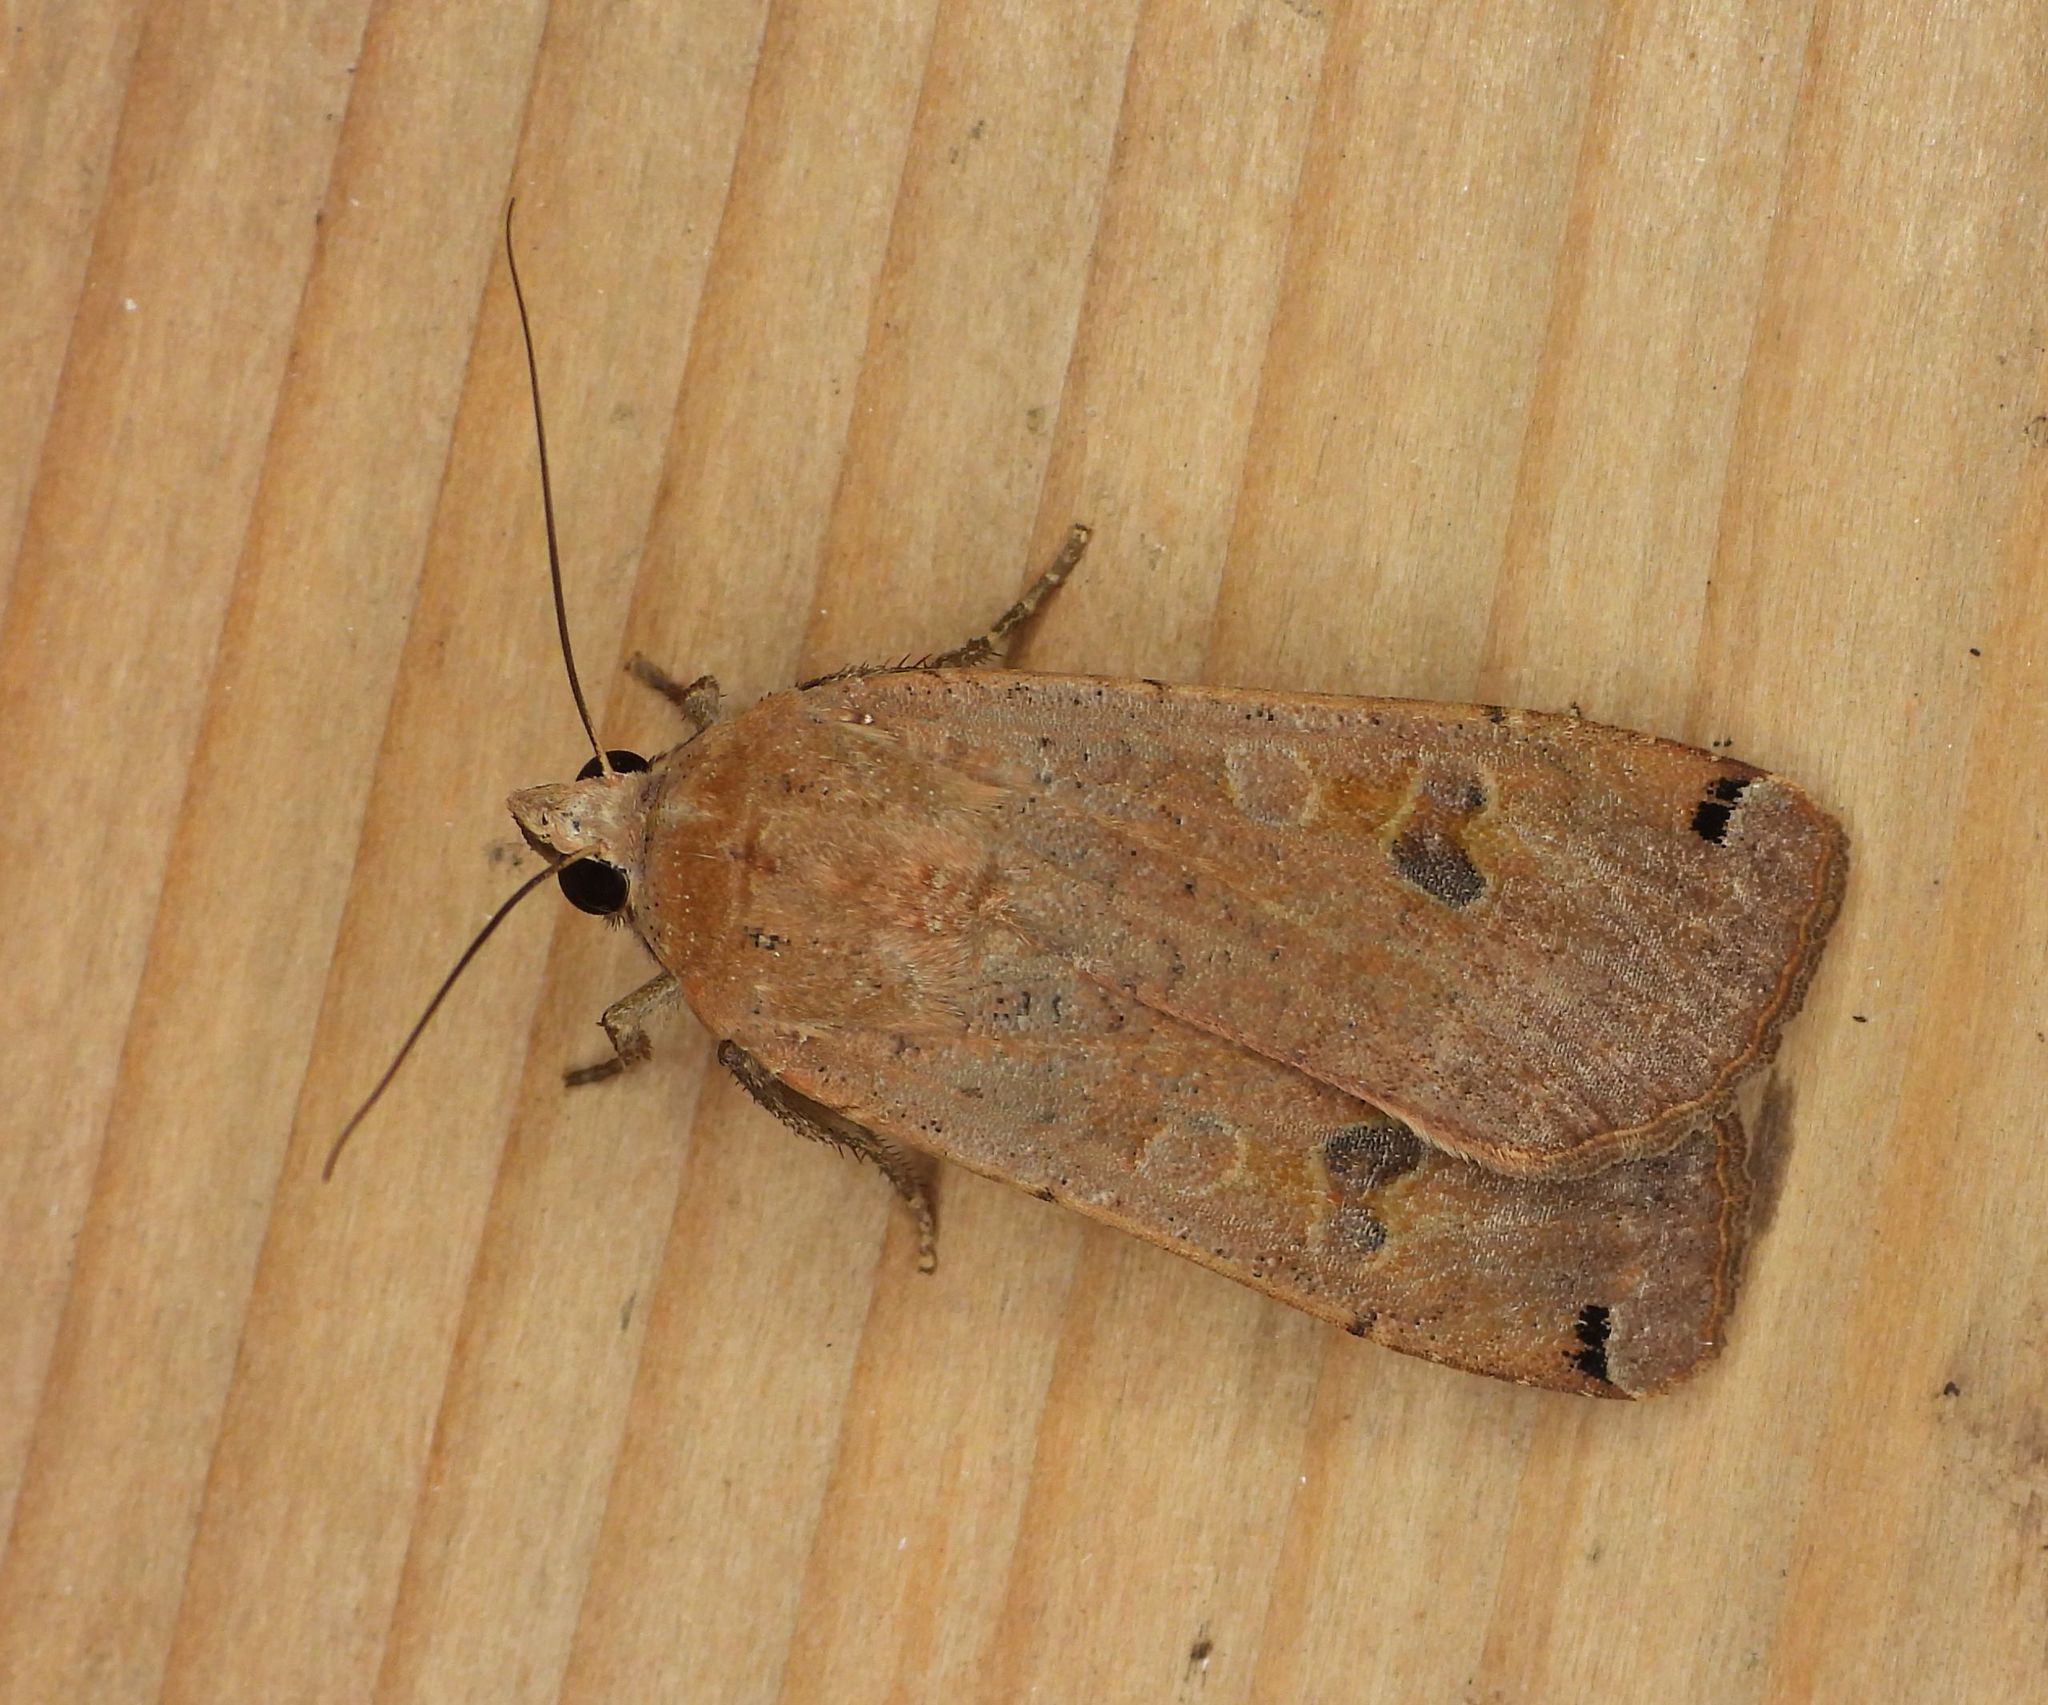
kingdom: Animalia
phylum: Arthropoda
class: Insecta
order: Lepidoptera
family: Noctuidae
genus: Noctua
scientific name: Noctua pronuba
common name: Large yellow underwing
